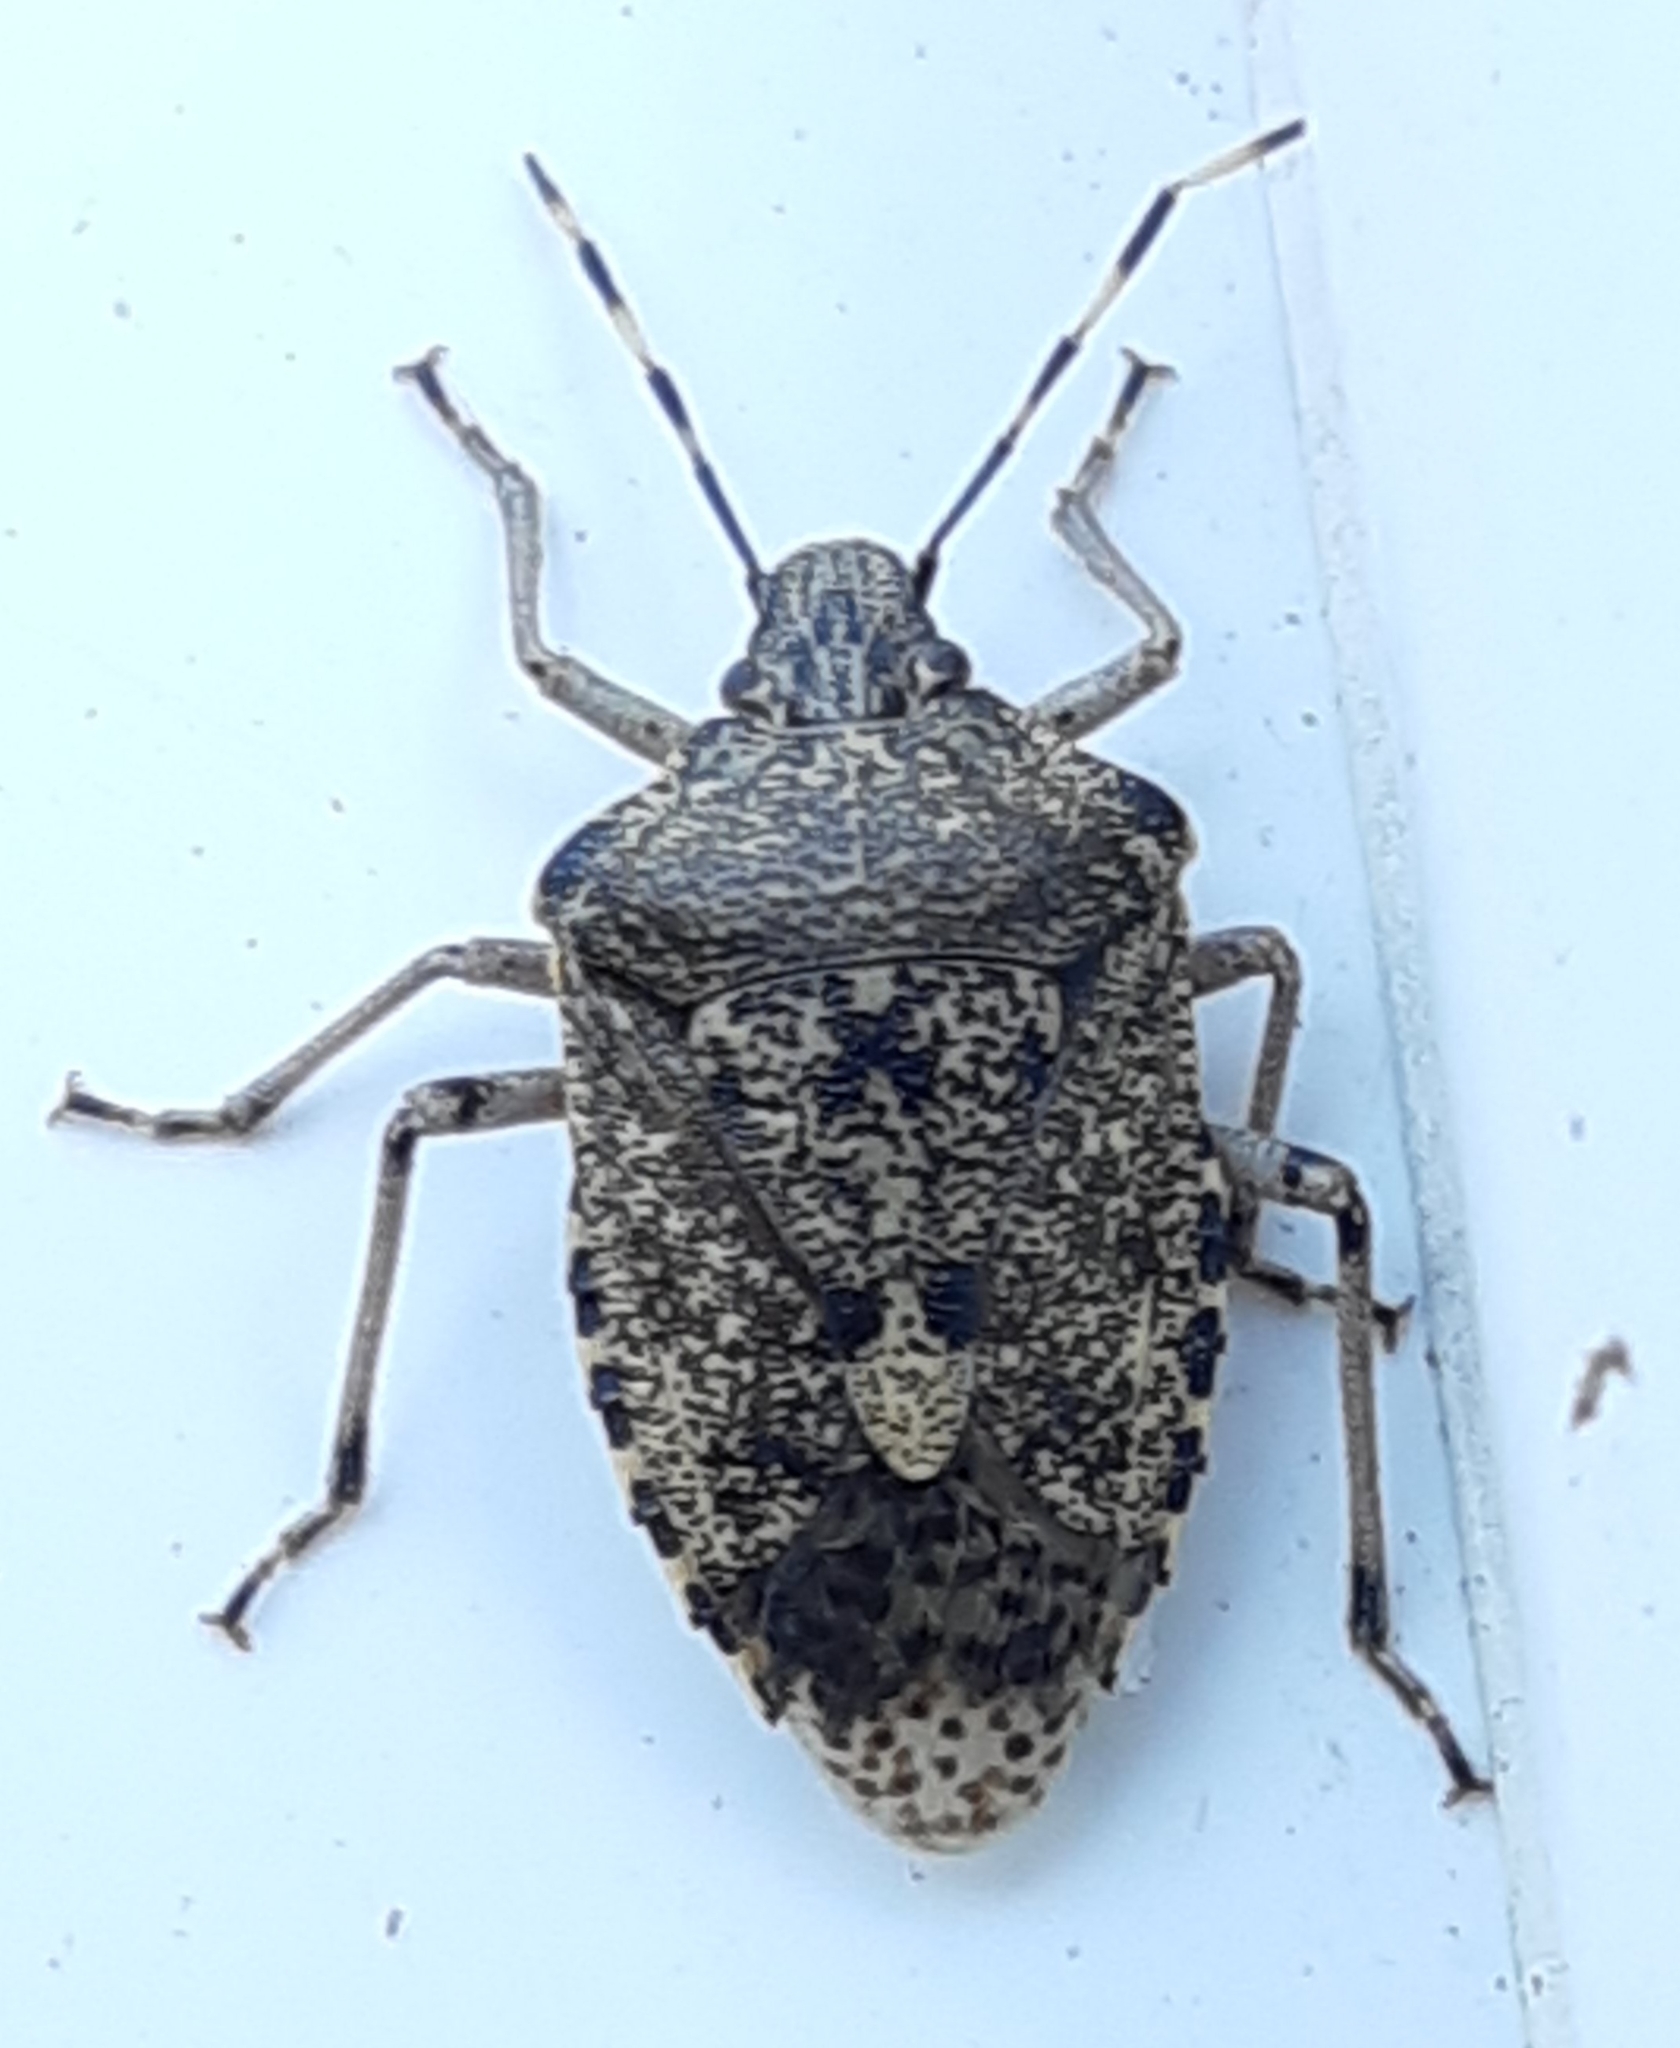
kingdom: Animalia
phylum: Arthropoda
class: Insecta
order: Hemiptera
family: Pentatomidae
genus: Rhaphigaster
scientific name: Rhaphigaster nebulosa
